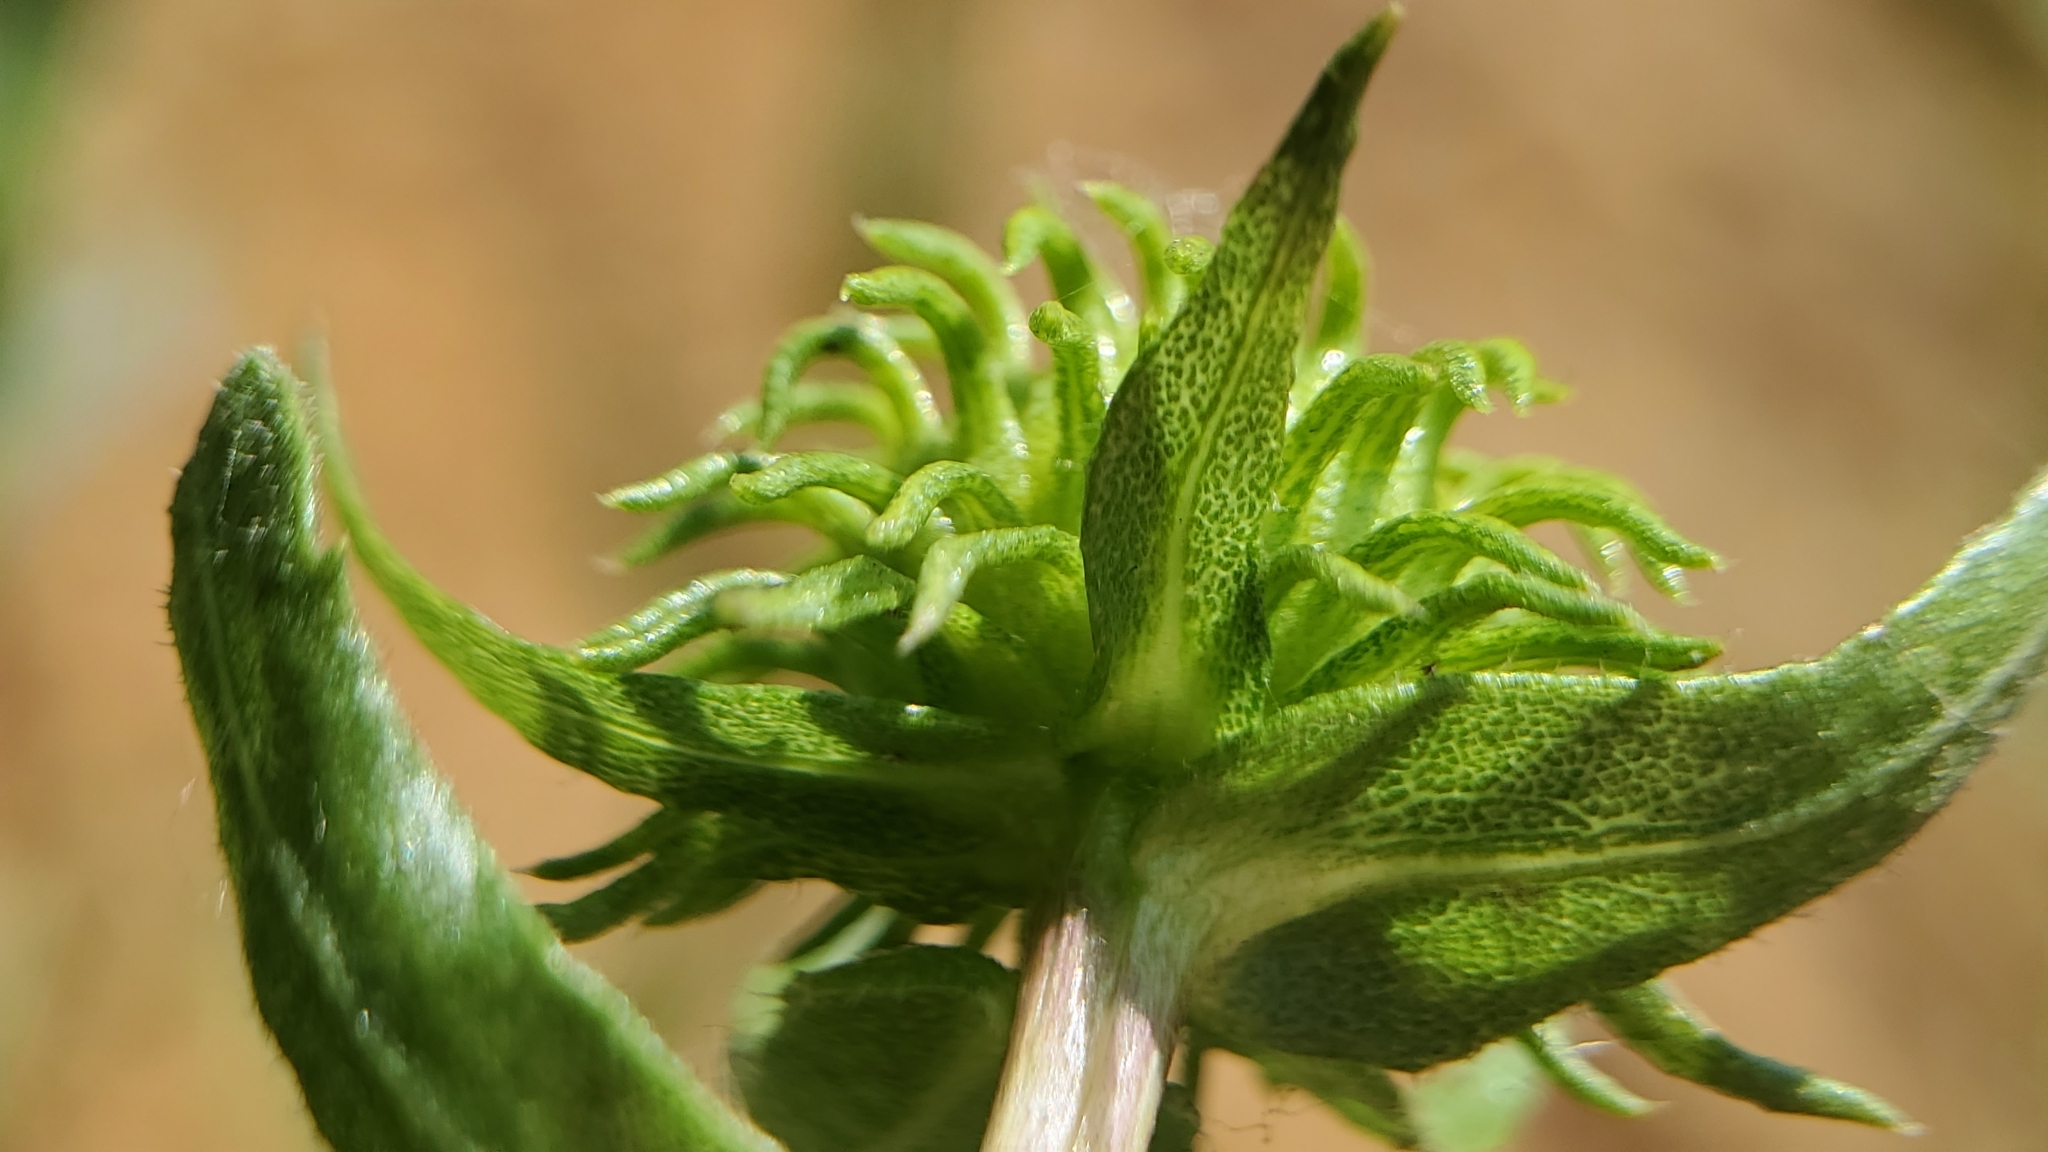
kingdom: Plantae
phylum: Tracheophyta
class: Magnoliopsida
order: Asterales
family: Asteraceae
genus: Grindelia
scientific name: Grindelia hirsutula
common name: Hairy gumweed
